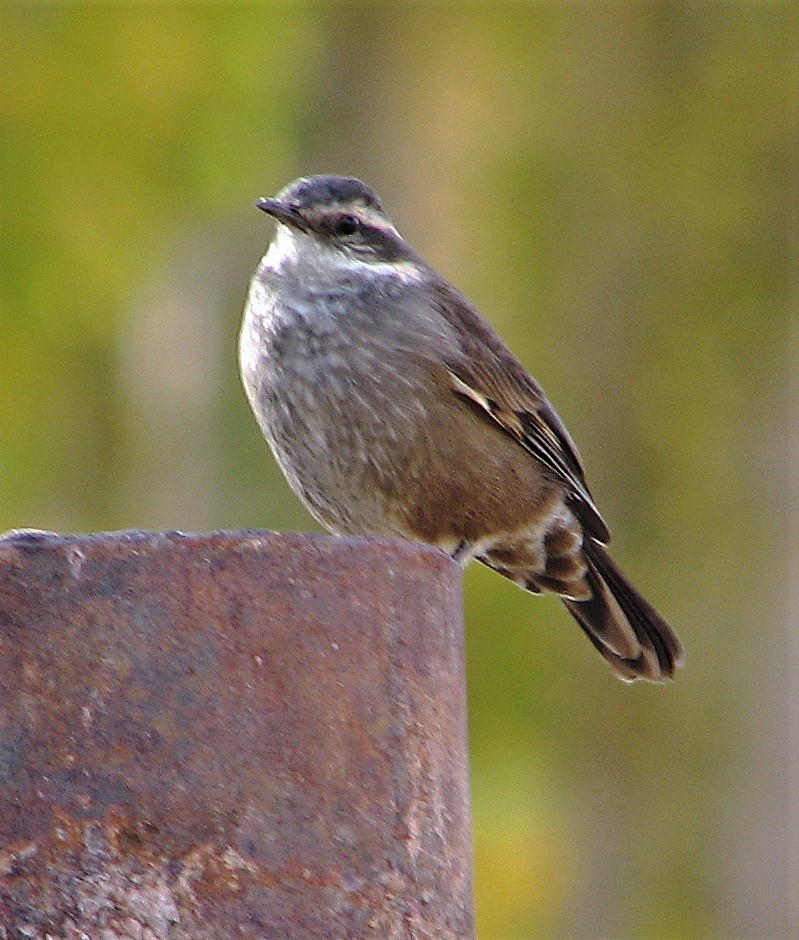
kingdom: Animalia
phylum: Chordata
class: Aves
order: Passeriformes
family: Furnariidae
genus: Cinclodes
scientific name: Cinclodes oustaleti
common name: Grey-flanked cinclodes
